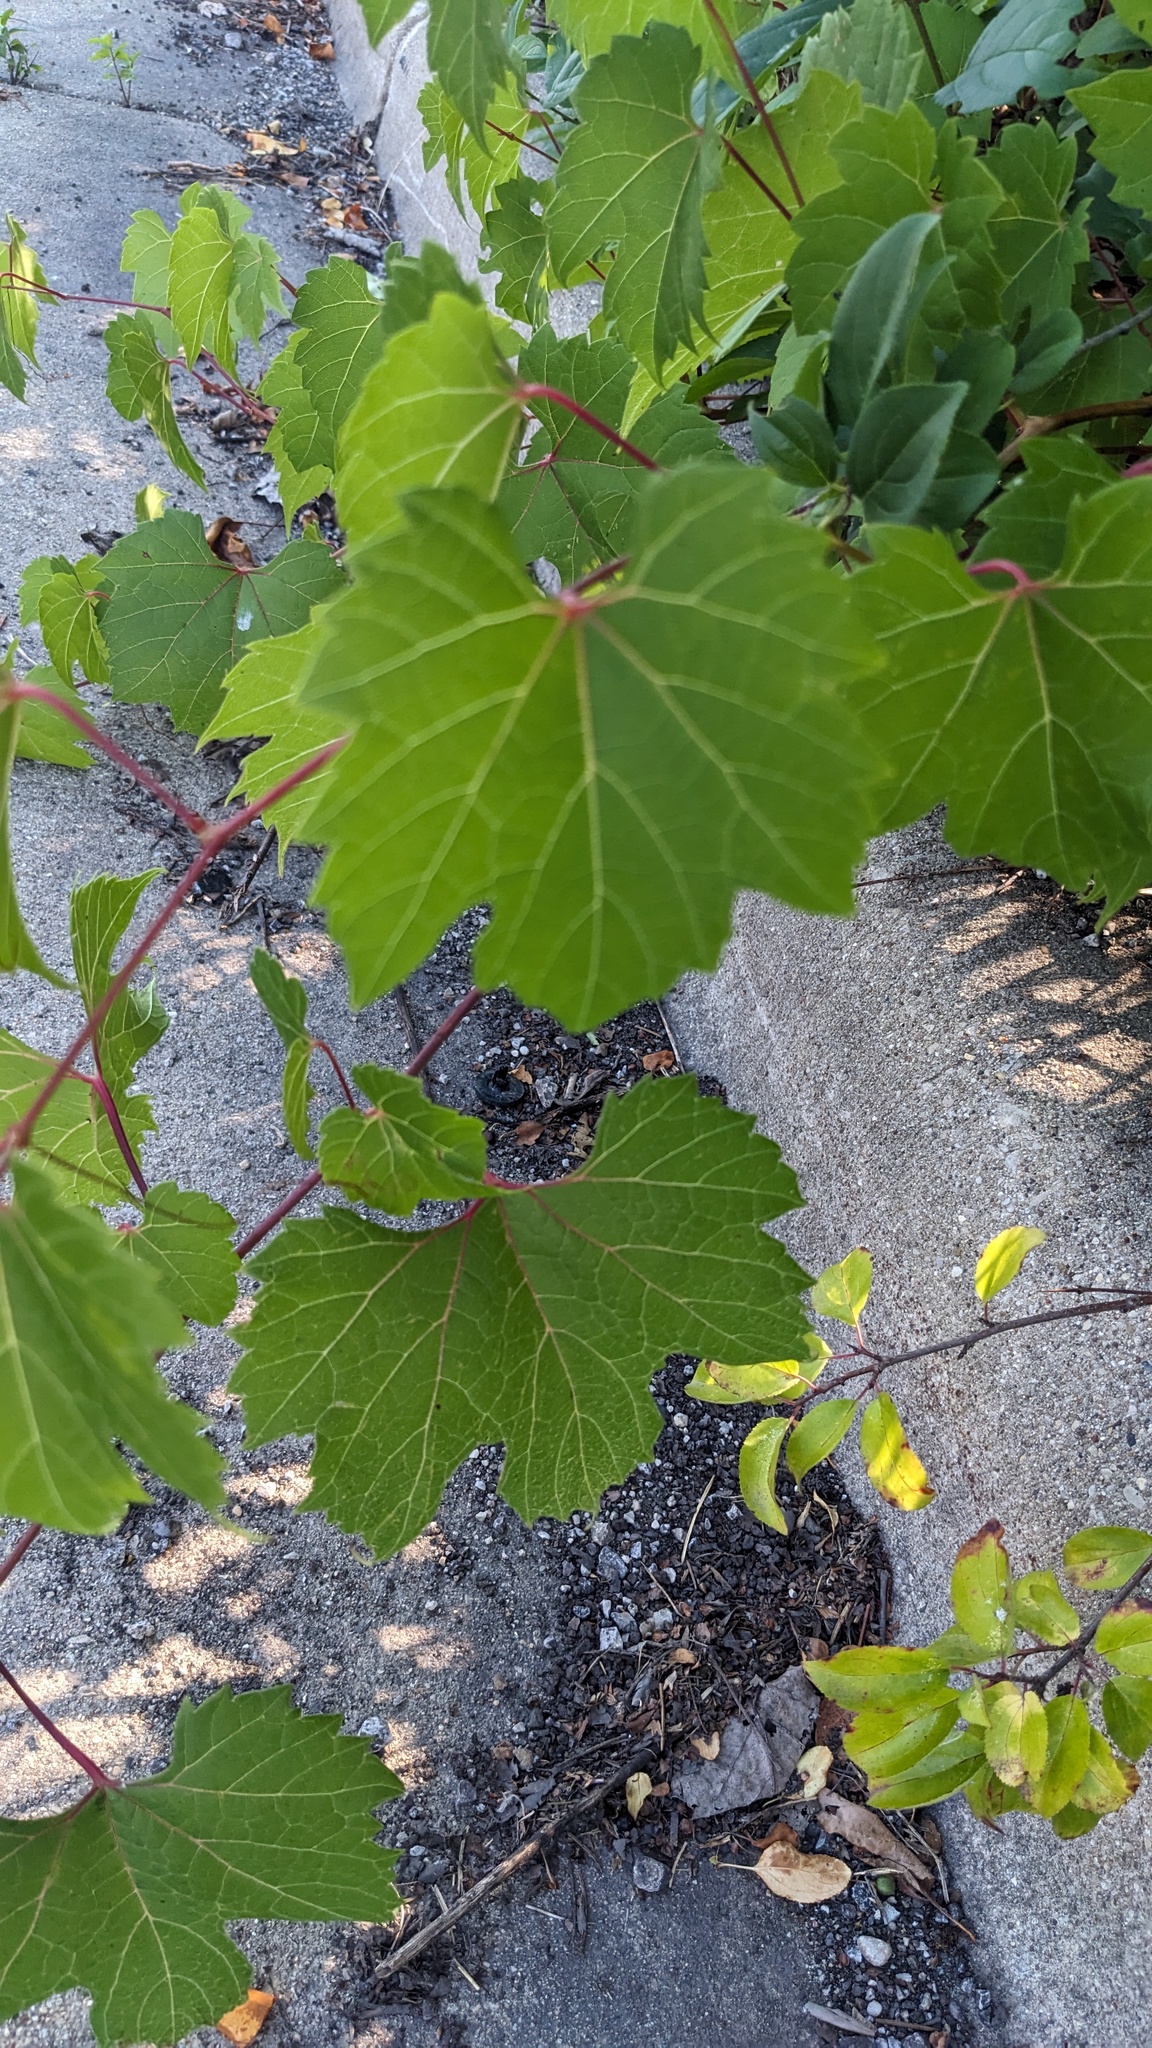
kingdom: Plantae
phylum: Tracheophyta
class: Magnoliopsida
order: Vitales
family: Vitaceae
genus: Vitis
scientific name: Vitis riparia
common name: Frost grape
